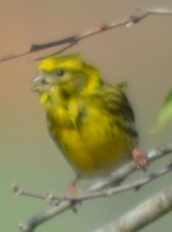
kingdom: Animalia
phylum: Chordata
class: Aves
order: Passeriformes
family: Fringillidae
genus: Serinus
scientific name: Serinus serinus
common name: European serin
